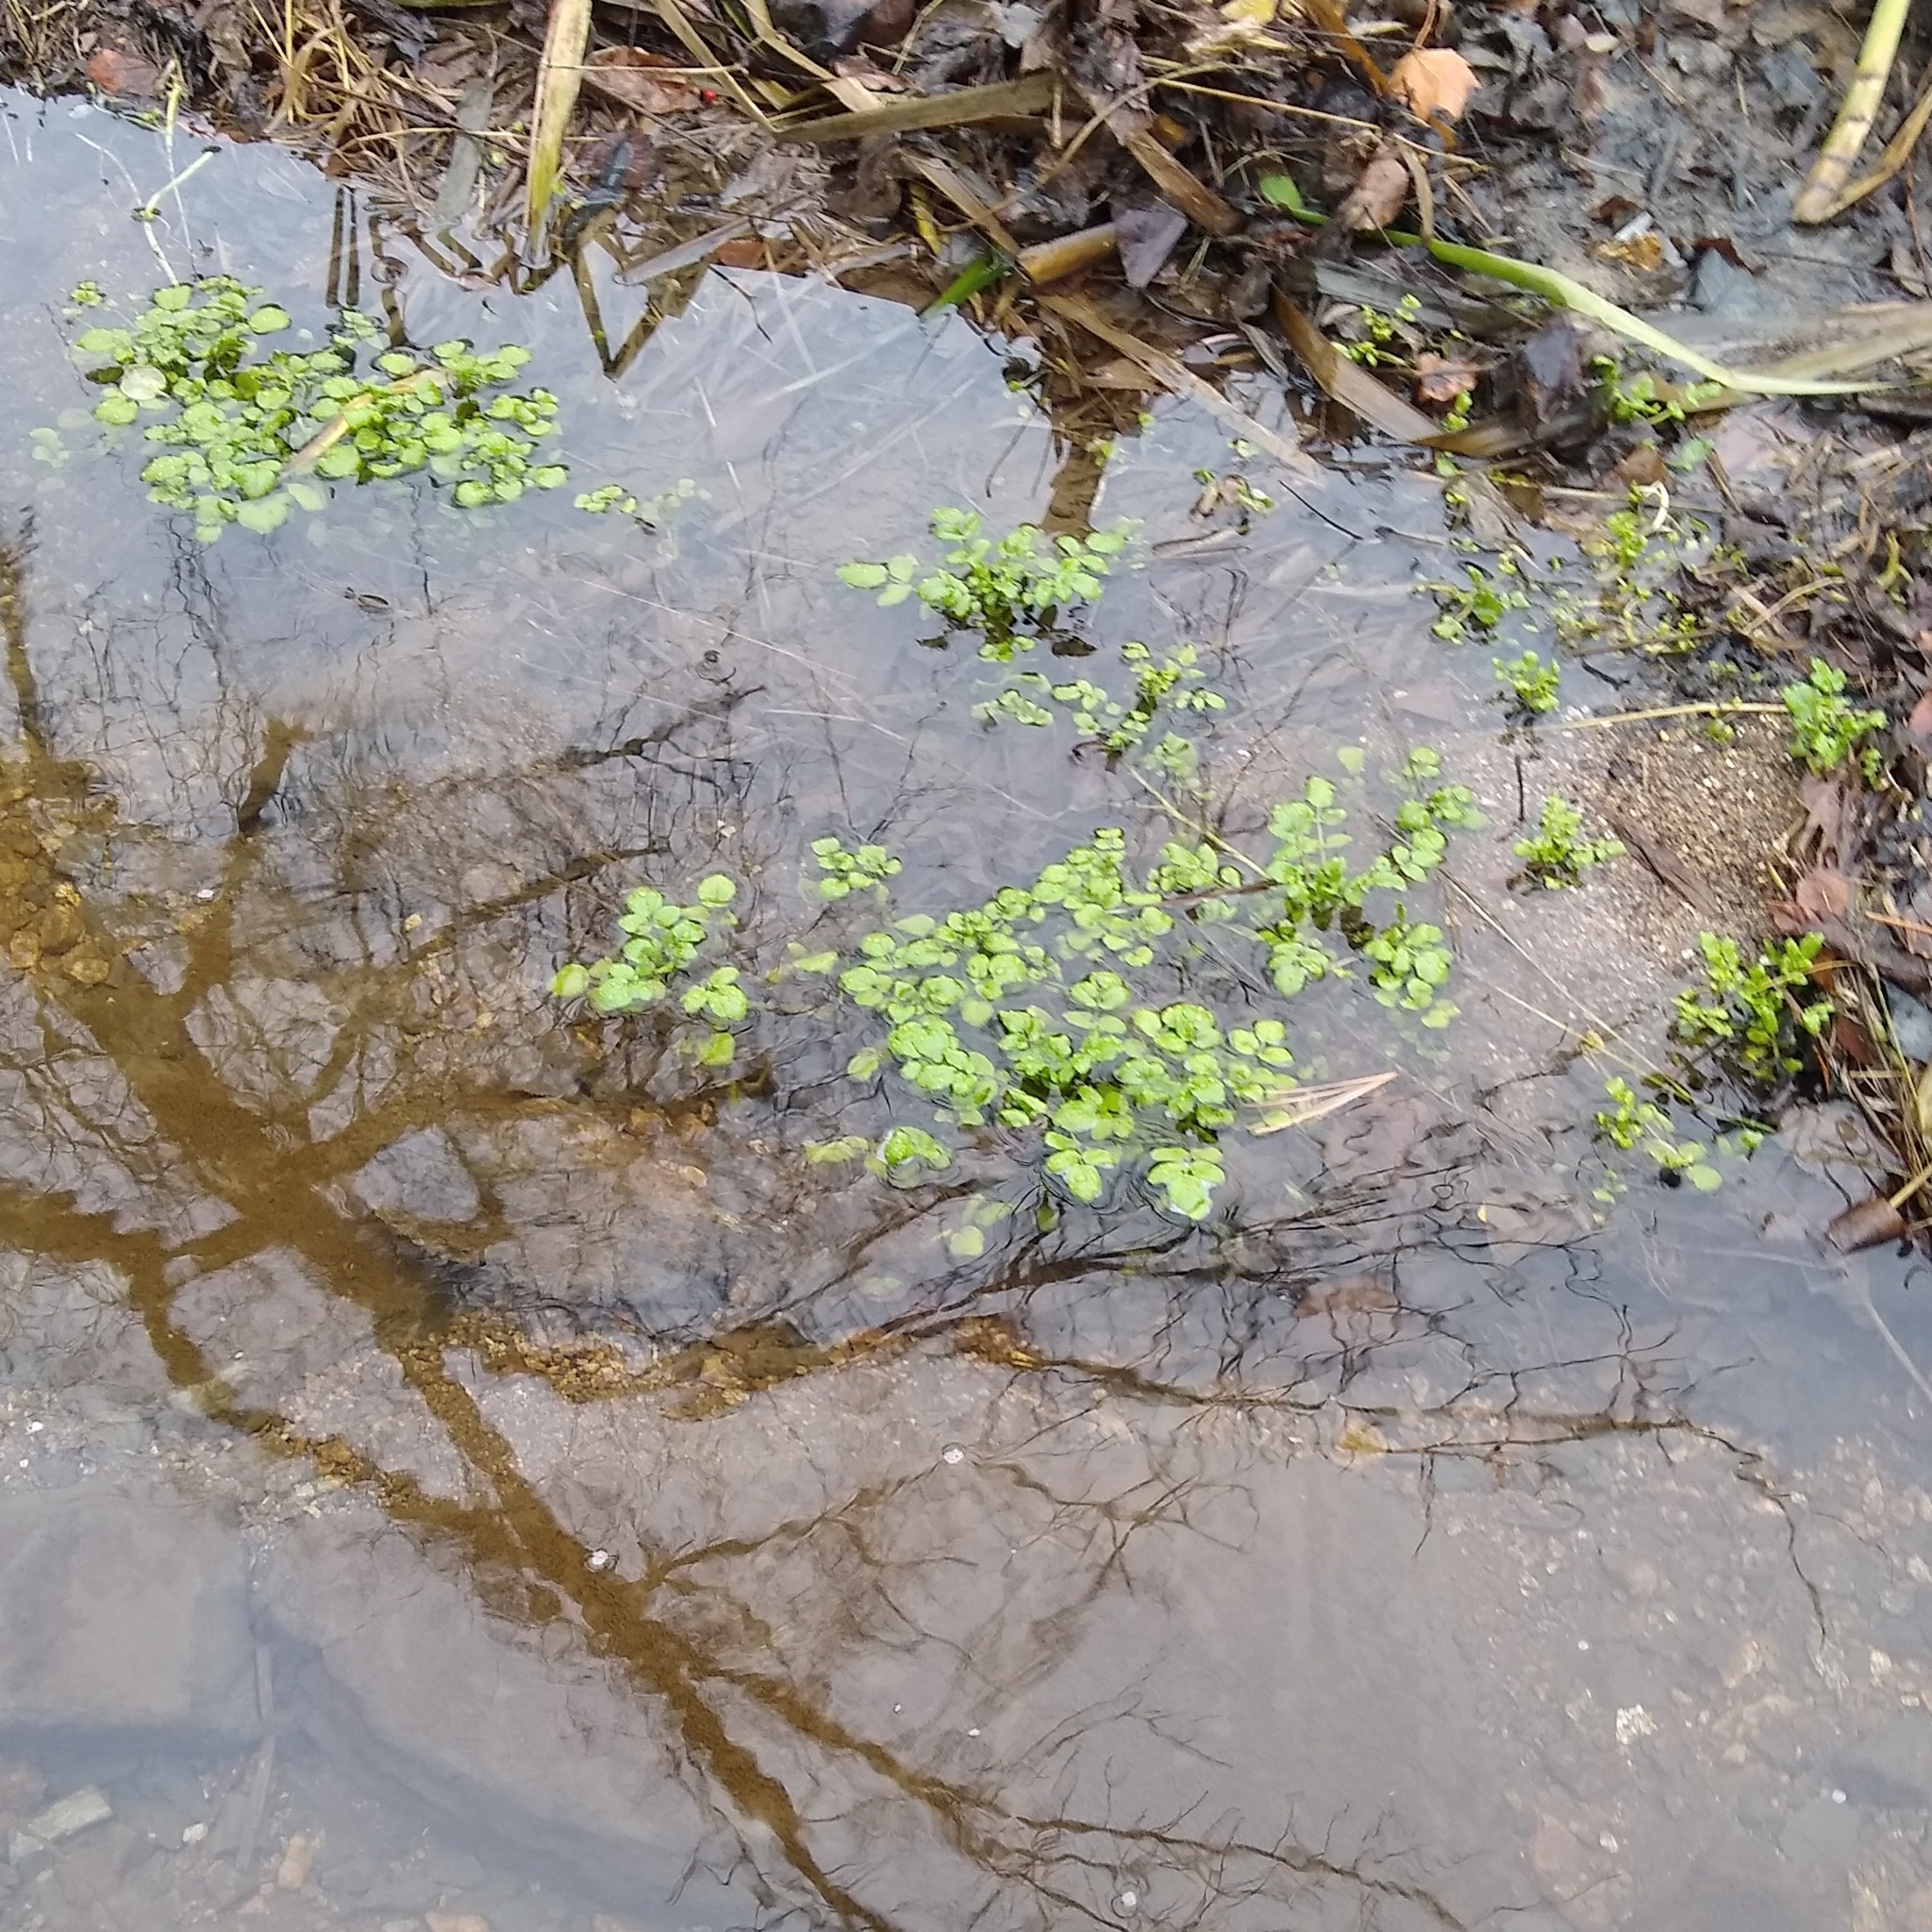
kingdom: Plantae
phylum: Tracheophyta
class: Magnoliopsida
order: Brassicales
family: Brassicaceae
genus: Nasturtium
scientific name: Nasturtium officinale
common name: Watercress
